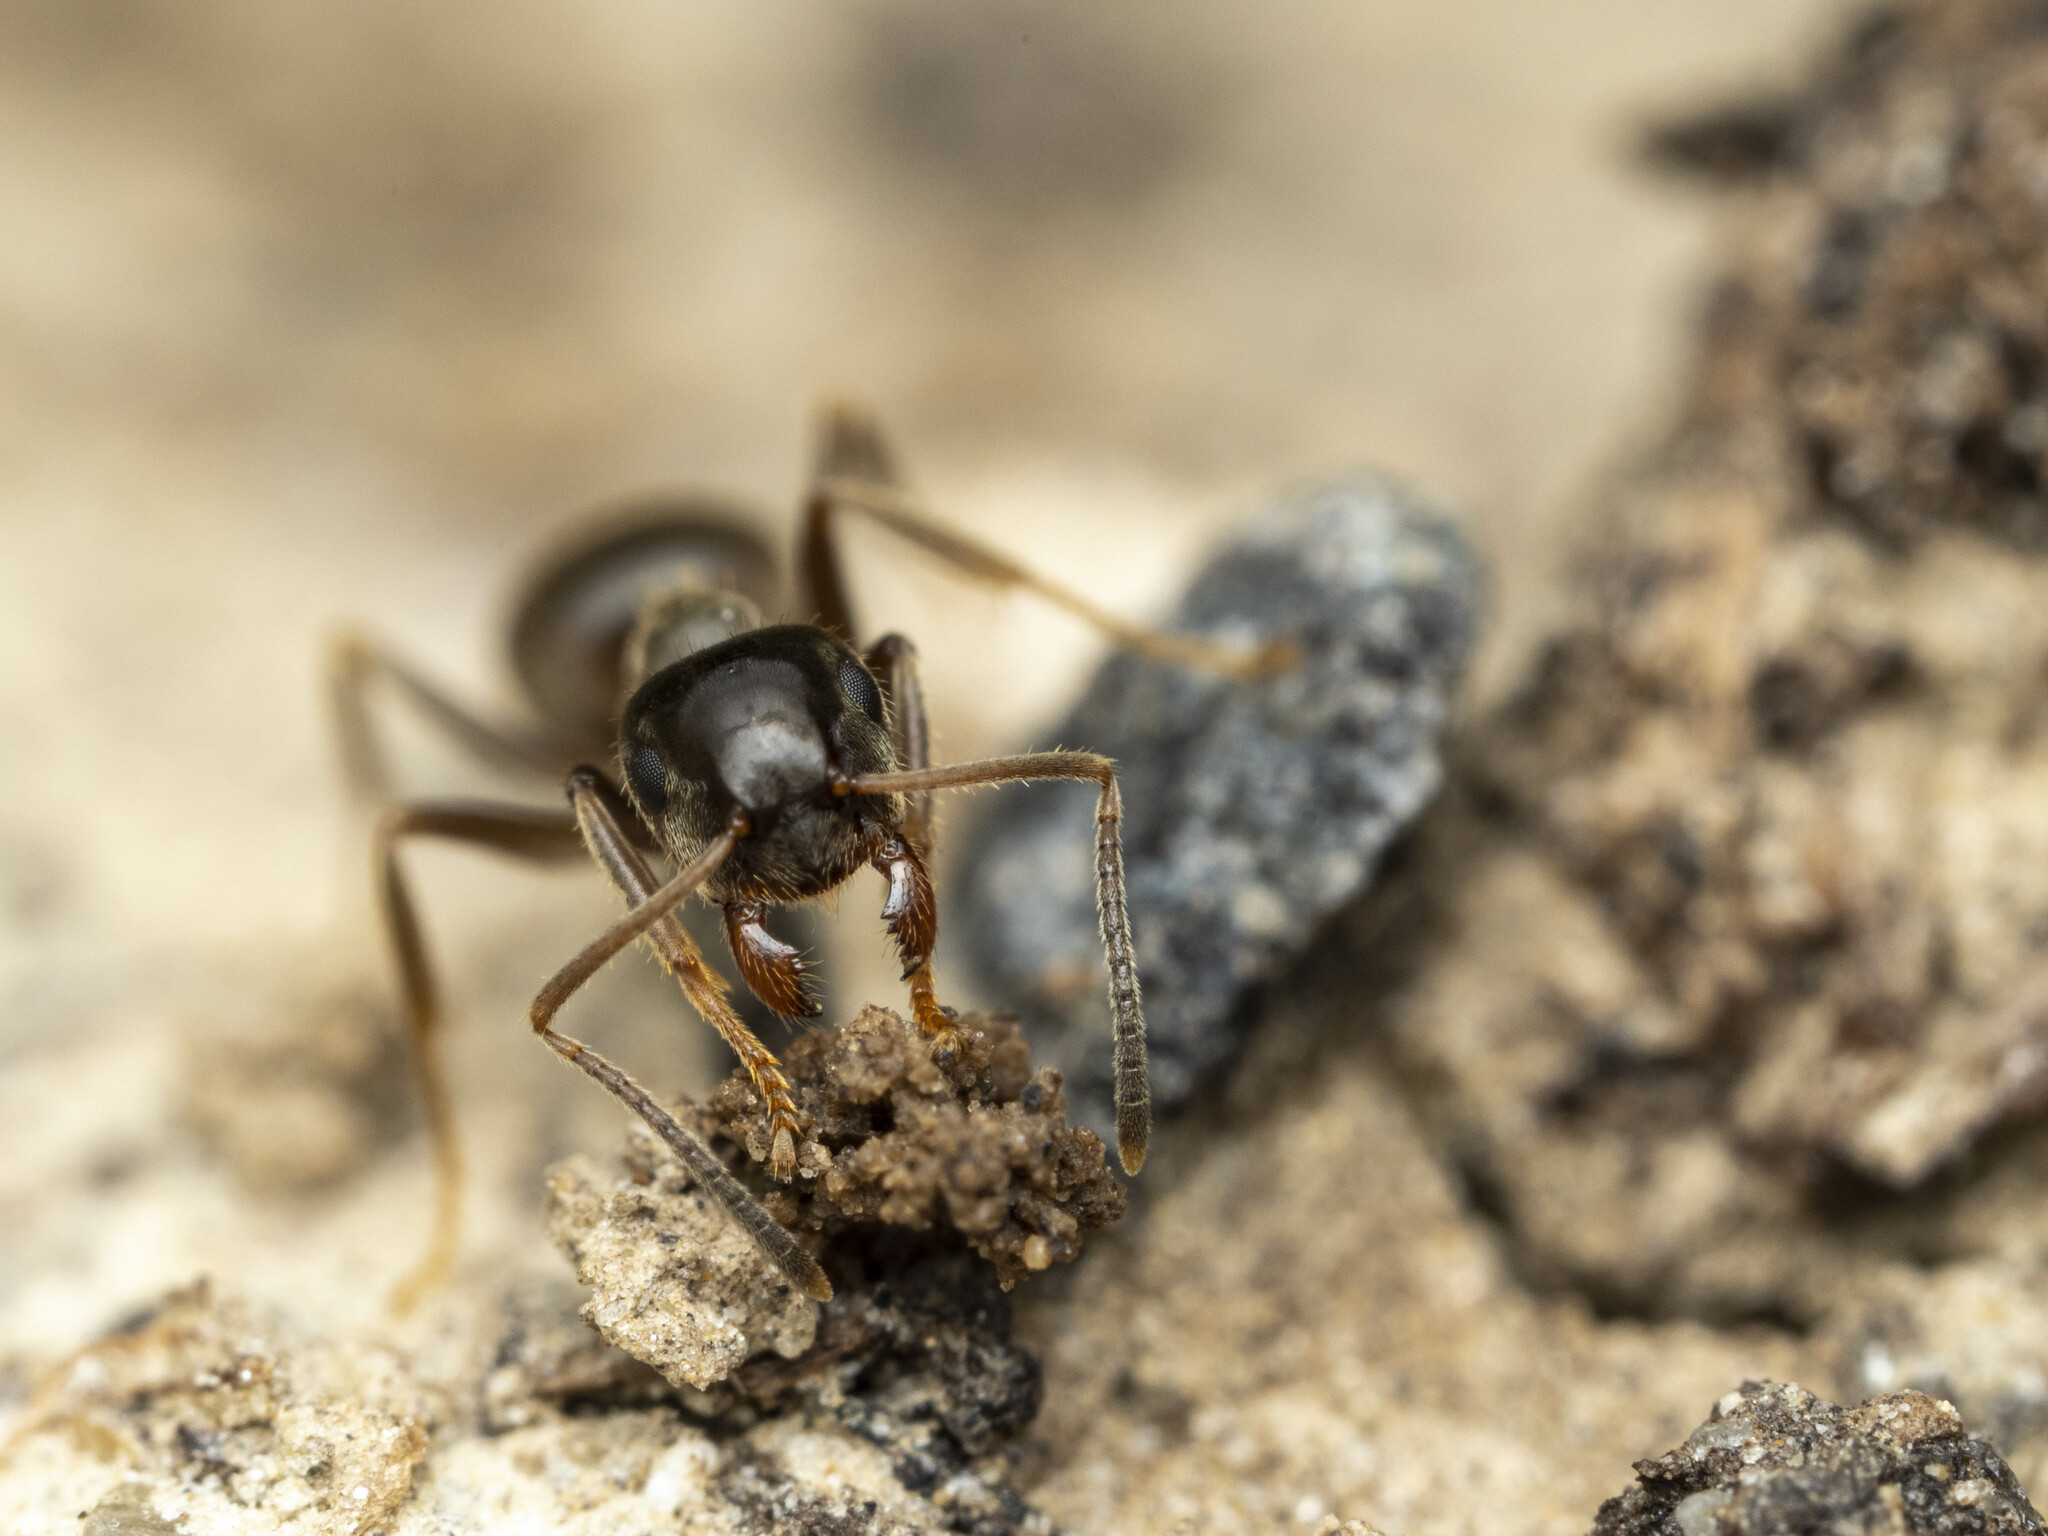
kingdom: Animalia
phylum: Arthropoda
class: Insecta
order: Hymenoptera
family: Formicidae
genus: Lasius
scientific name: Lasius niger
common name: Small black ant
